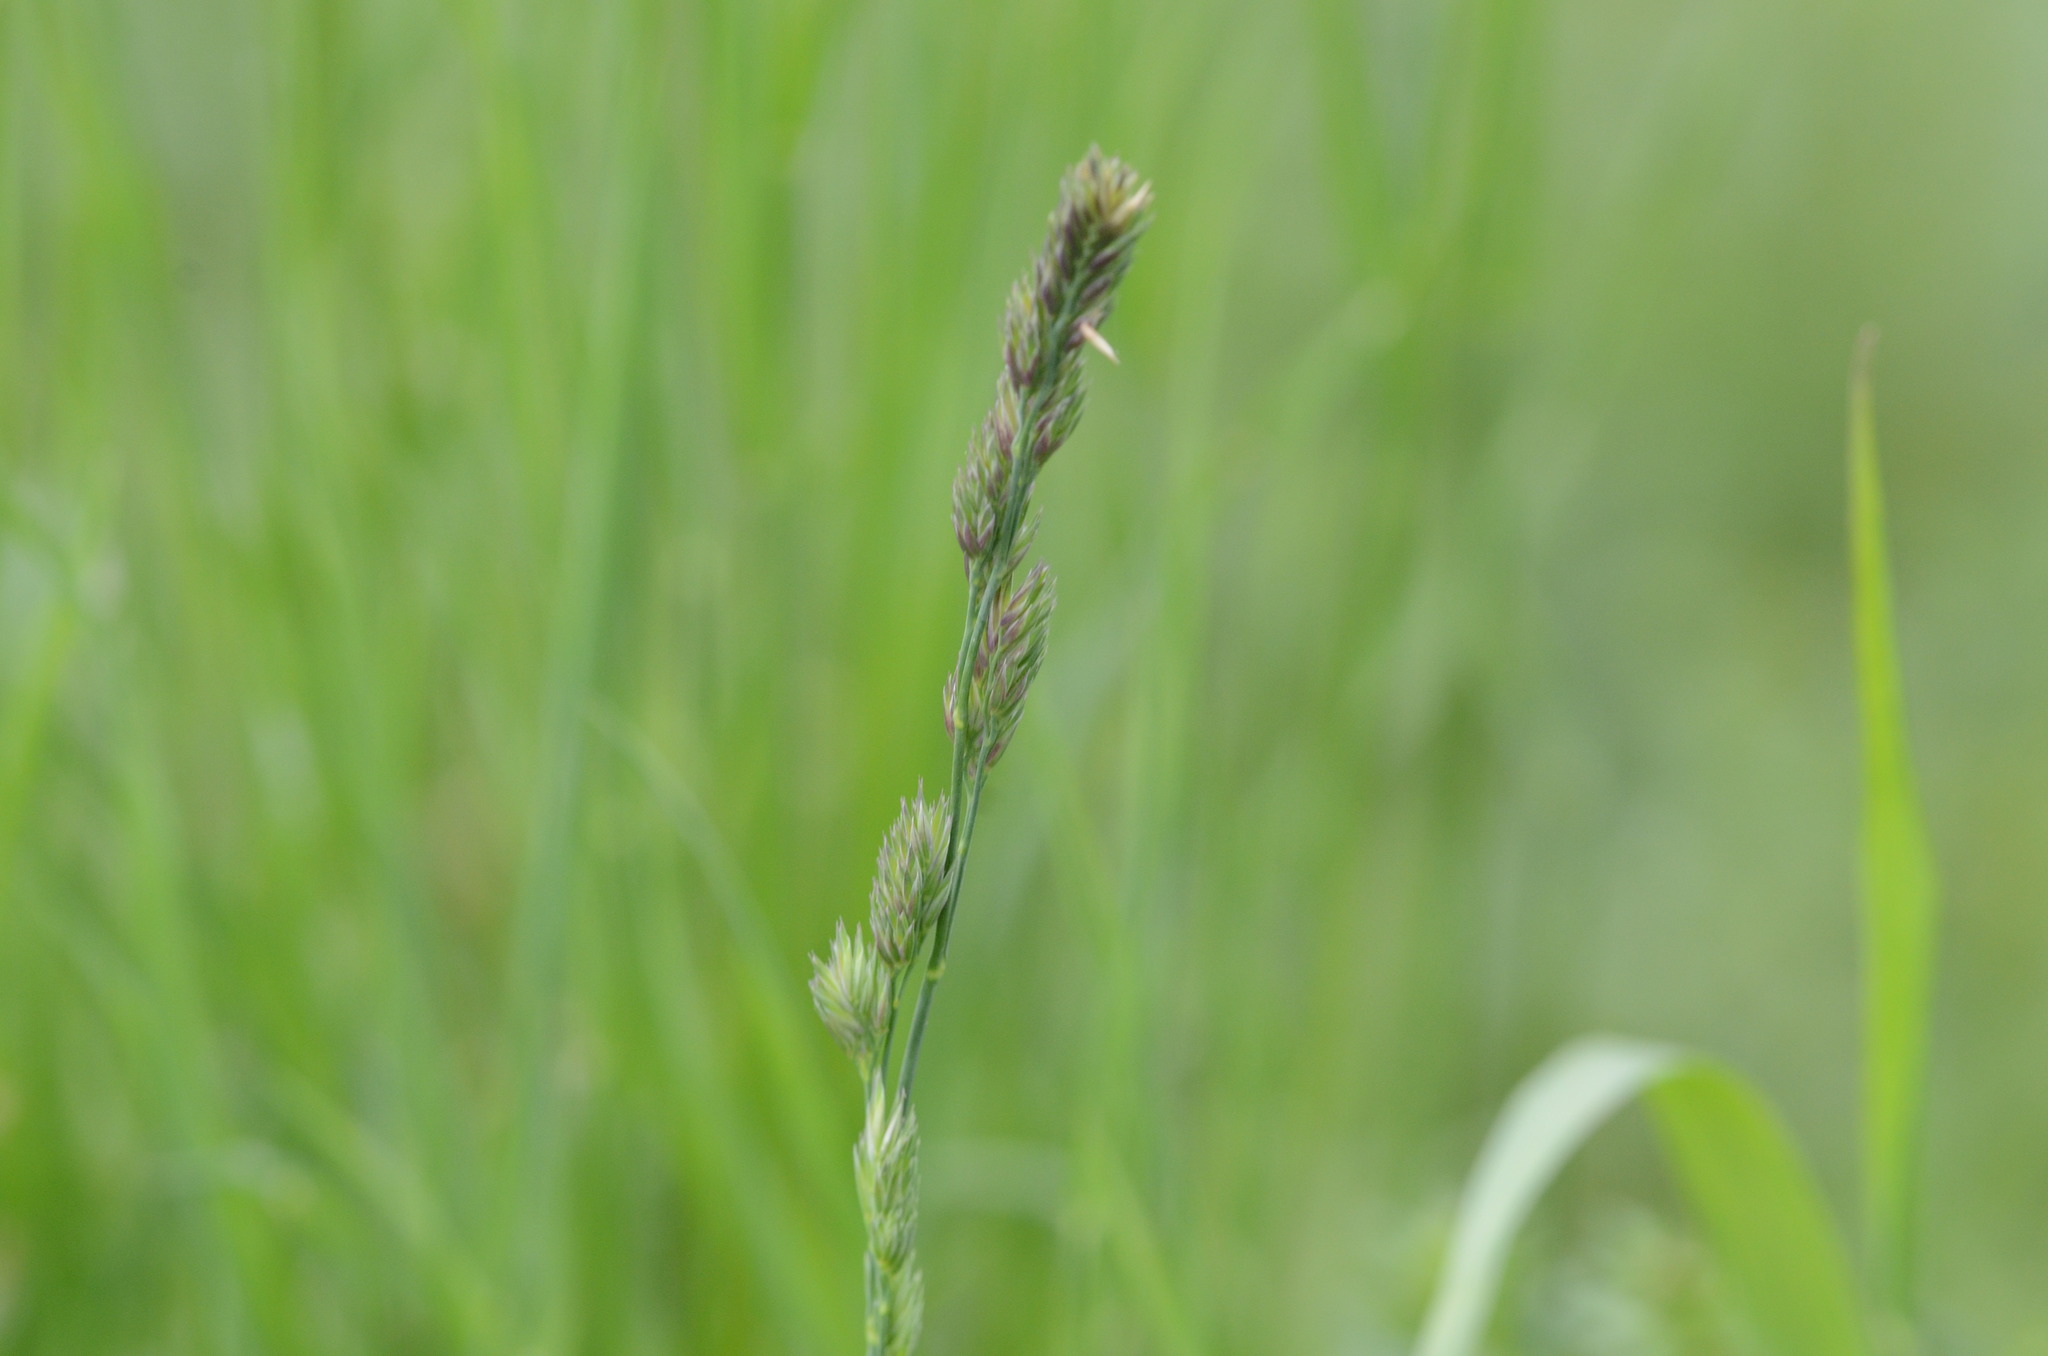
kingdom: Plantae
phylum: Tracheophyta
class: Liliopsida
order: Poales
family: Poaceae
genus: Dactylis
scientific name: Dactylis glomerata
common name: Orchardgrass
